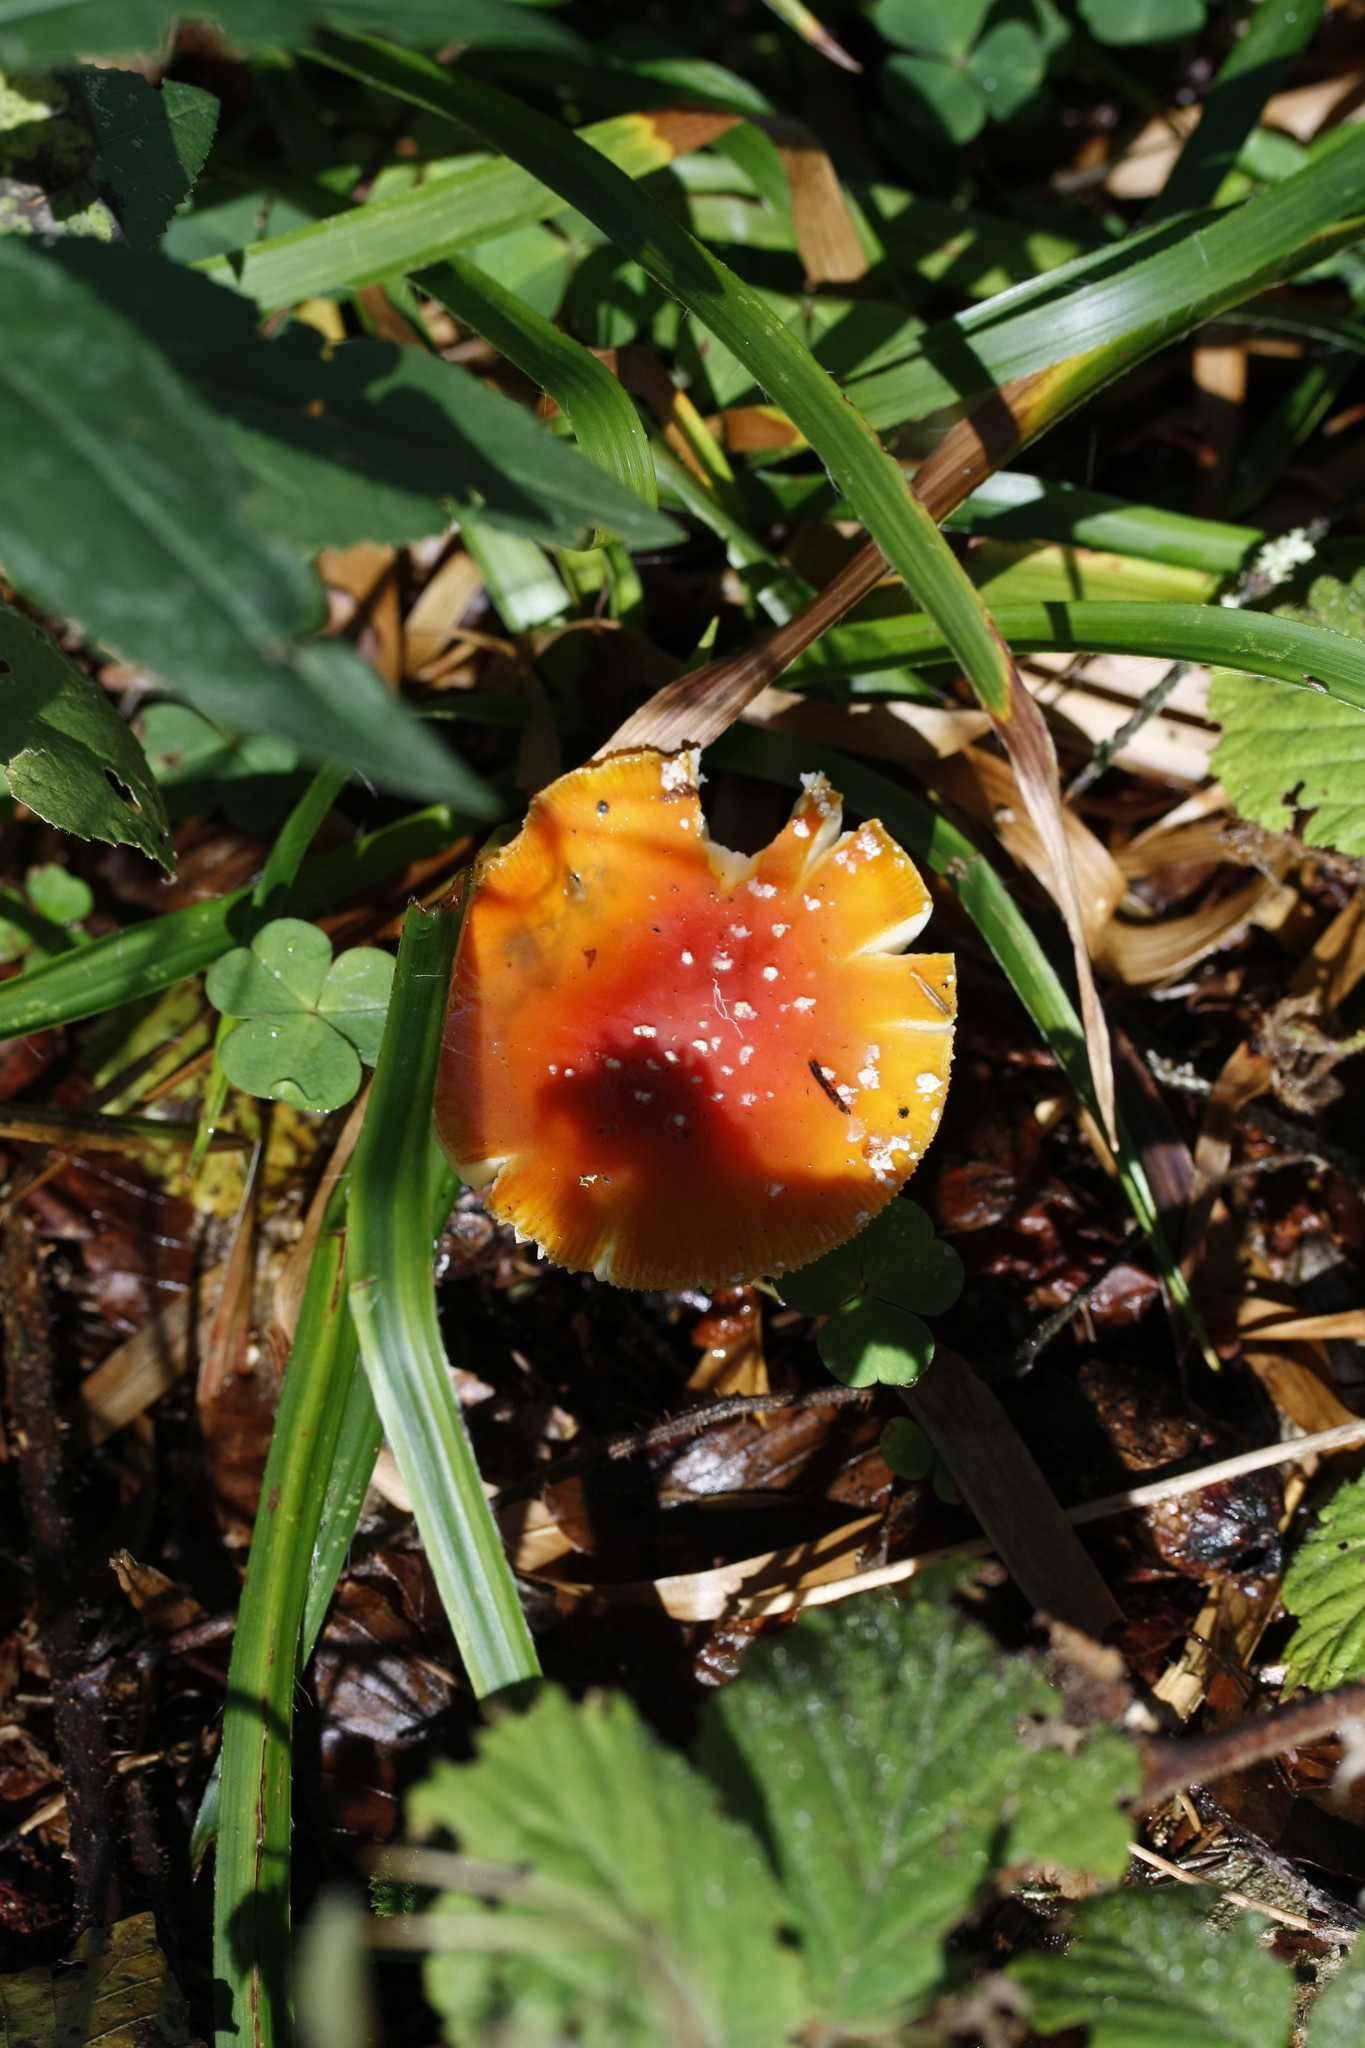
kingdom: Fungi
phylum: Basidiomycota
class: Agaricomycetes
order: Agaricales
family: Amanitaceae
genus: Amanita
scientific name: Amanita muscaria
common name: Fly agaric
